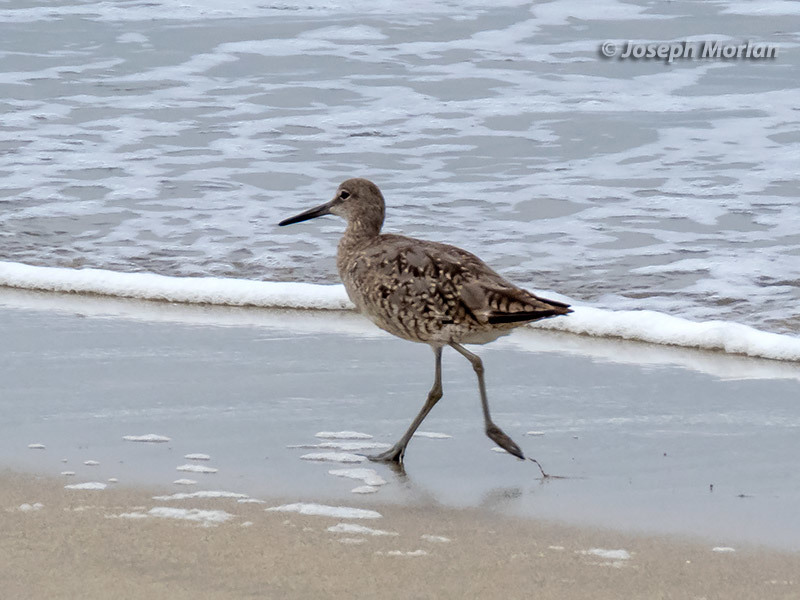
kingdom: Animalia
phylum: Chordata
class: Aves
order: Charadriiformes
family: Scolopacidae
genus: Tringa
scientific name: Tringa semipalmata
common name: Willet
